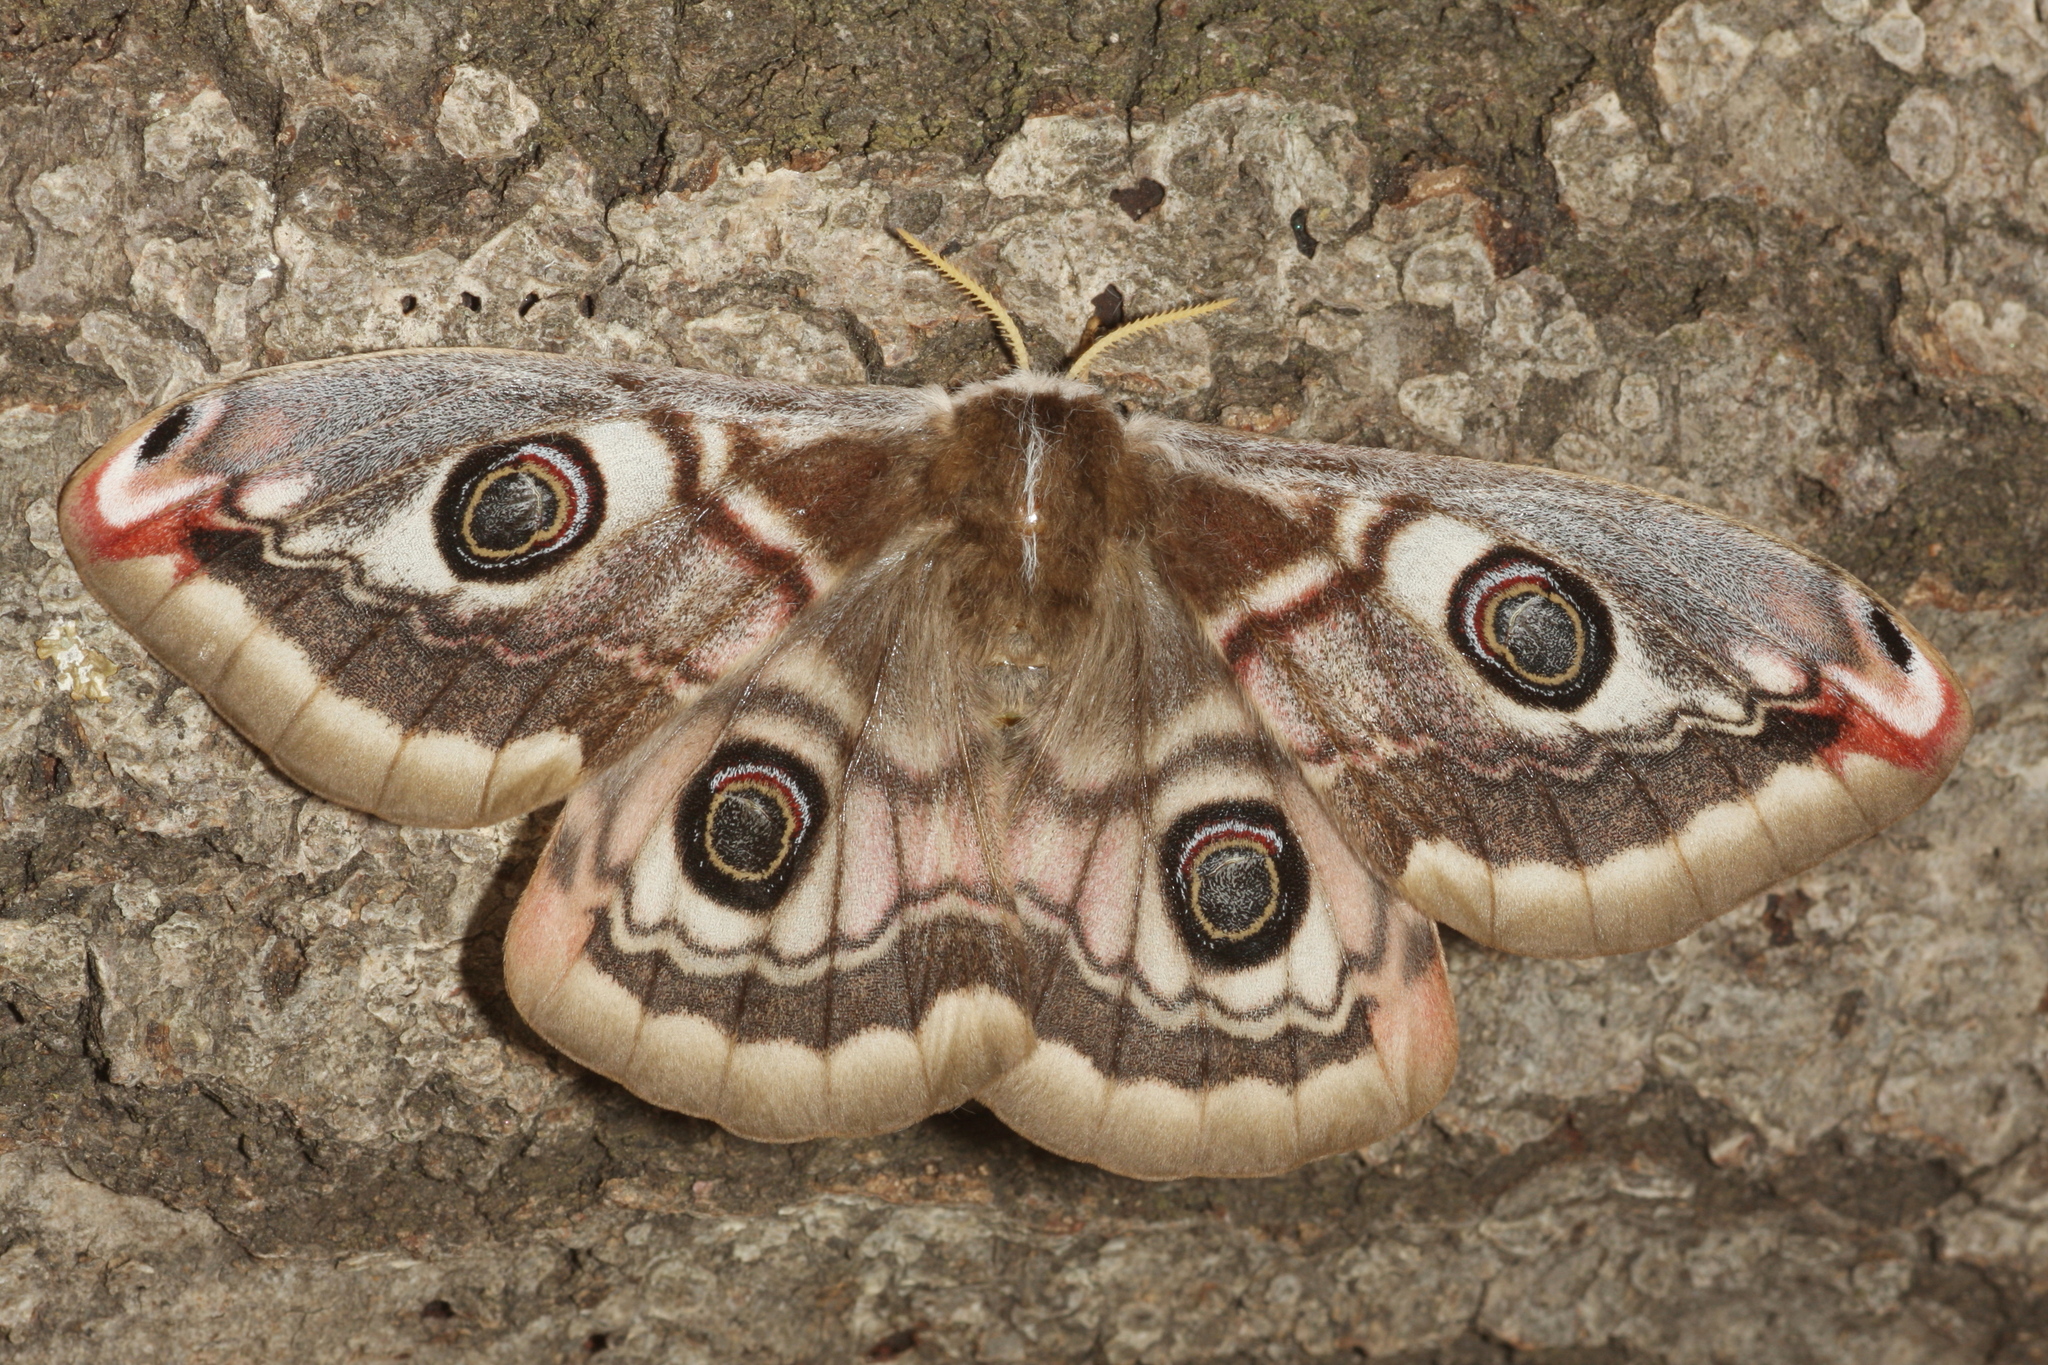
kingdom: Animalia
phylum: Arthropoda
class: Insecta
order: Lepidoptera
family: Saturniidae
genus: Saturnia
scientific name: Saturnia pavoniella
